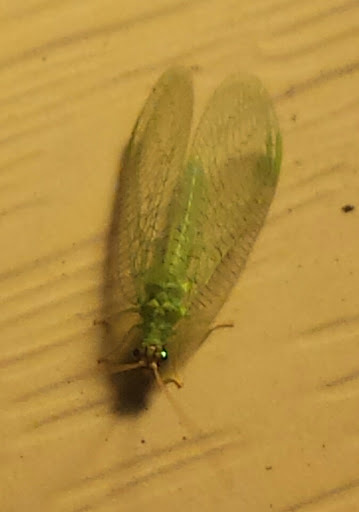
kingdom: Animalia
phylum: Arthropoda
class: Insecta
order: Neuroptera
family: Chrysopidae
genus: Chrysopa
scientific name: Chrysopa oculata
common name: Golden-eyed lacewing
